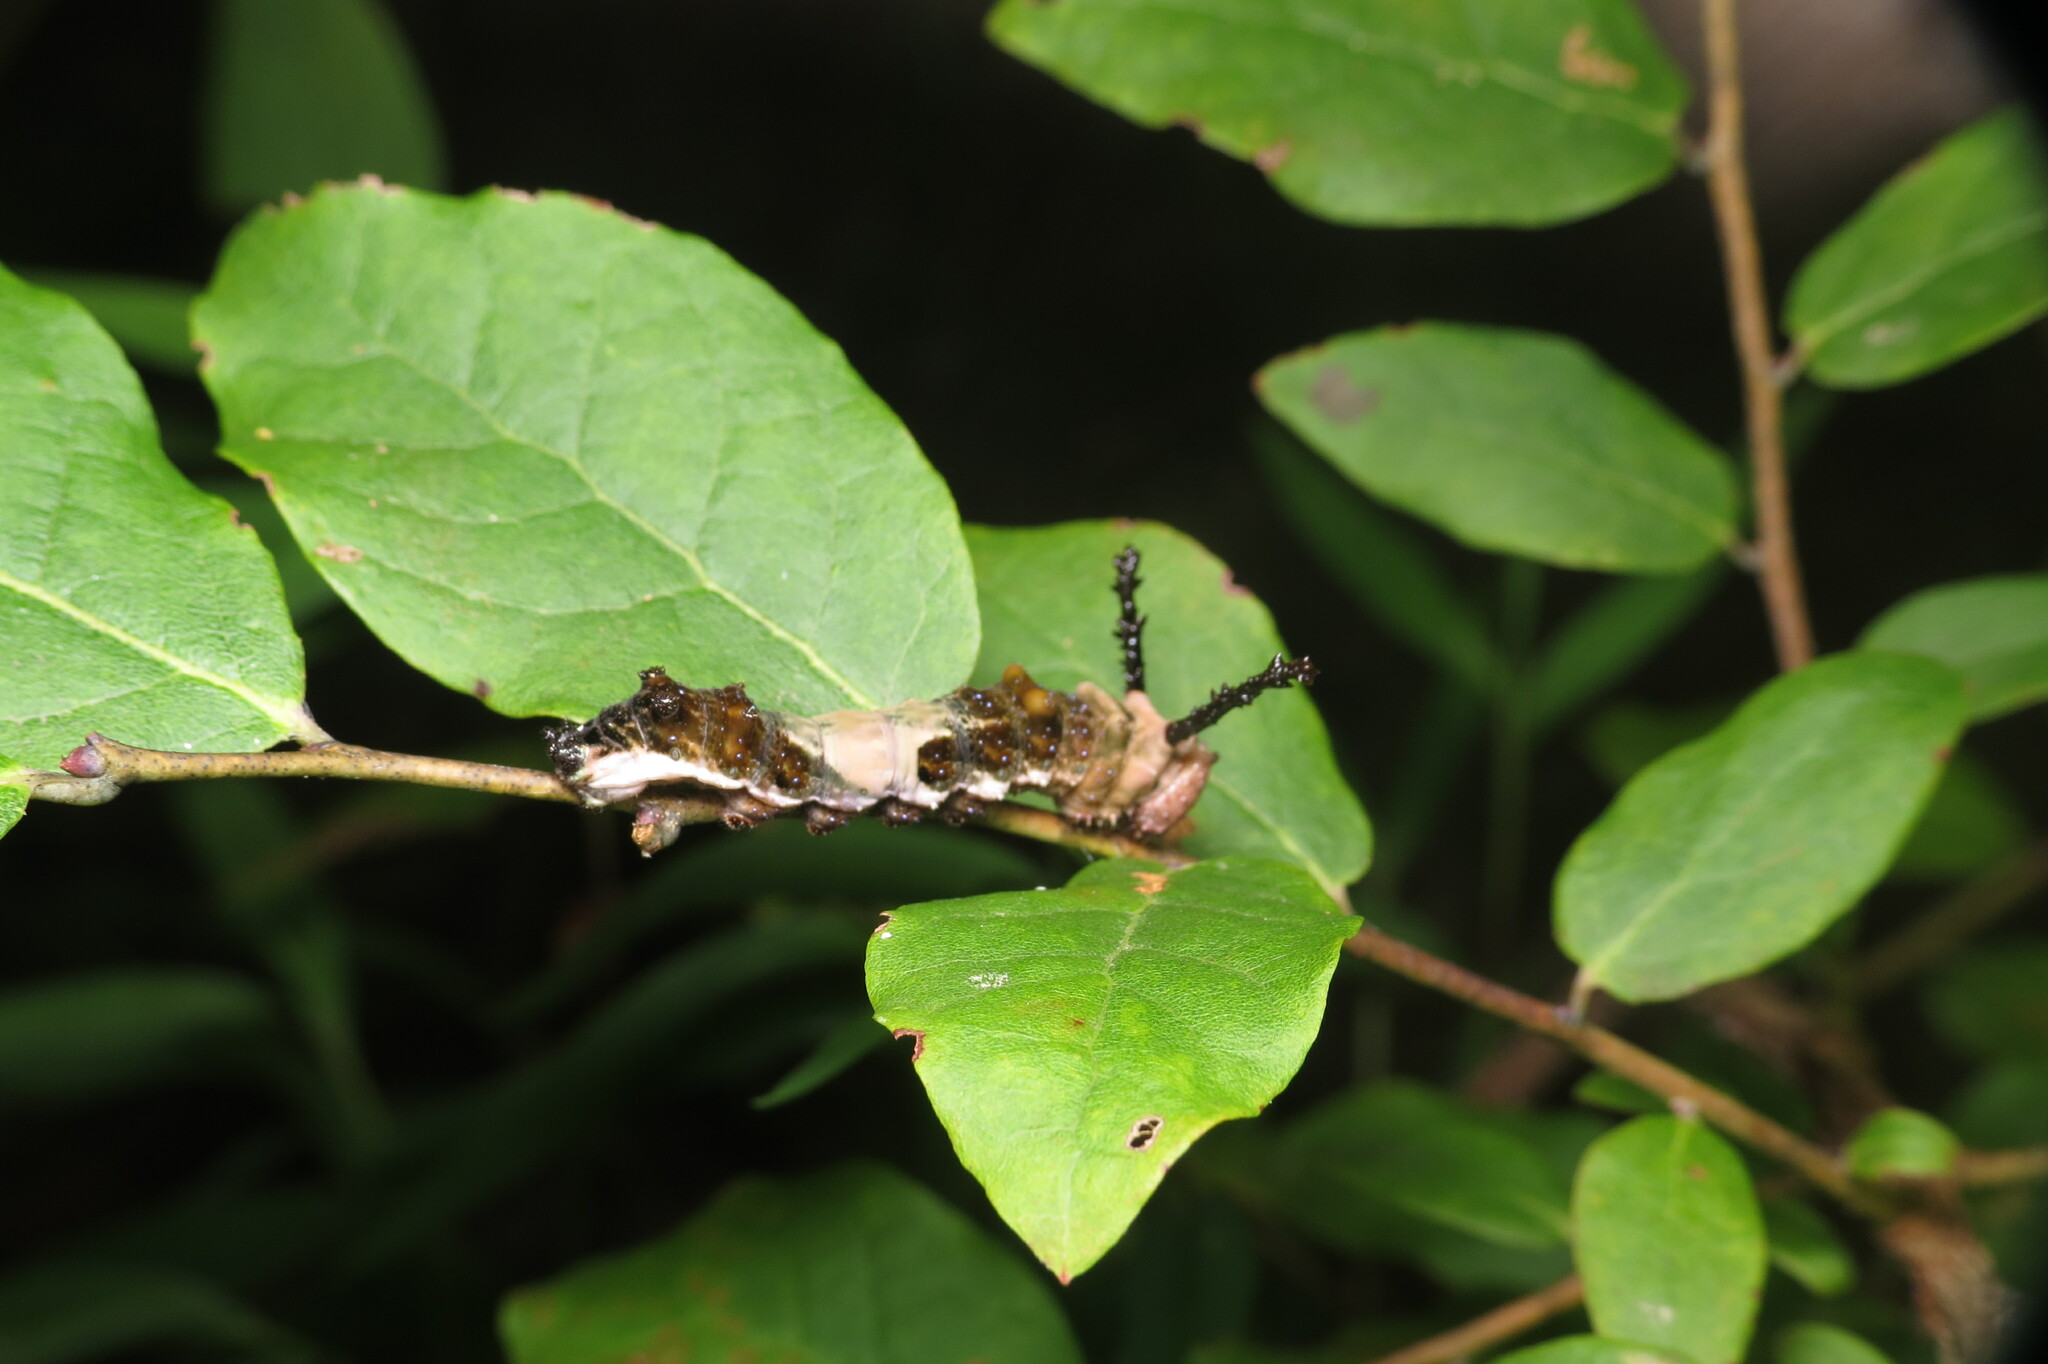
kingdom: Animalia
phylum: Arthropoda
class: Insecta
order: Lepidoptera
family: Nymphalidae
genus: Limenitis
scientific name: Limenitis astyanax
